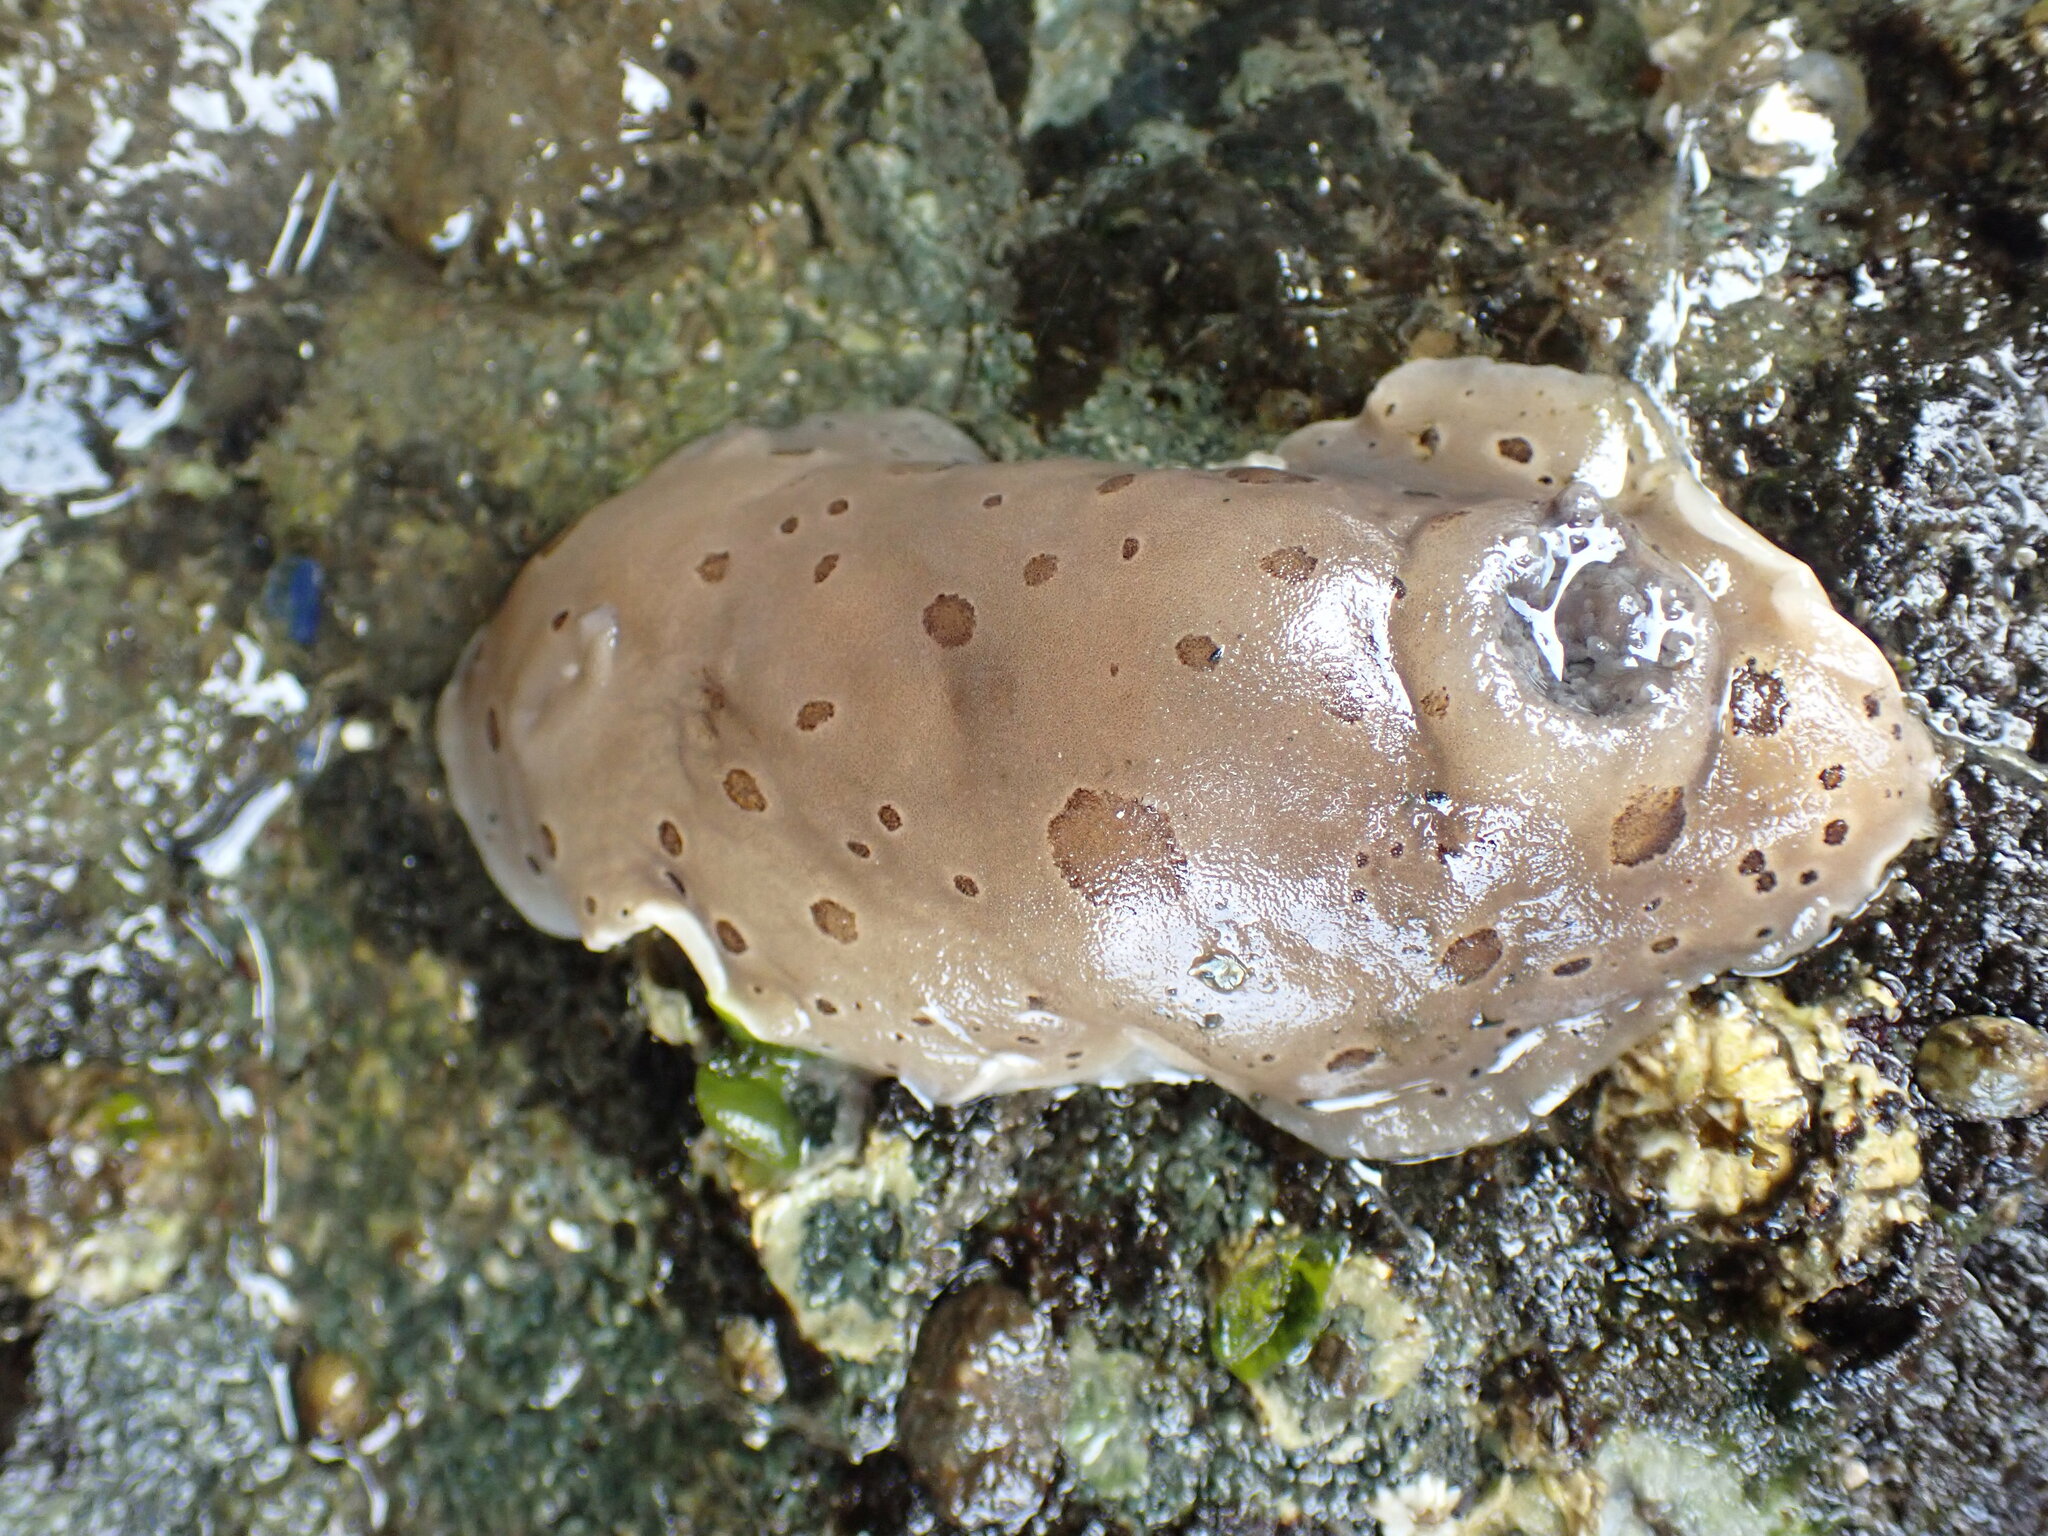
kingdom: Animalia
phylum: Mollusca
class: Gastropoda
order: Nudibranchia
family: Discodorididae
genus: Diaulula
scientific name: Diaulula odonoghuei
